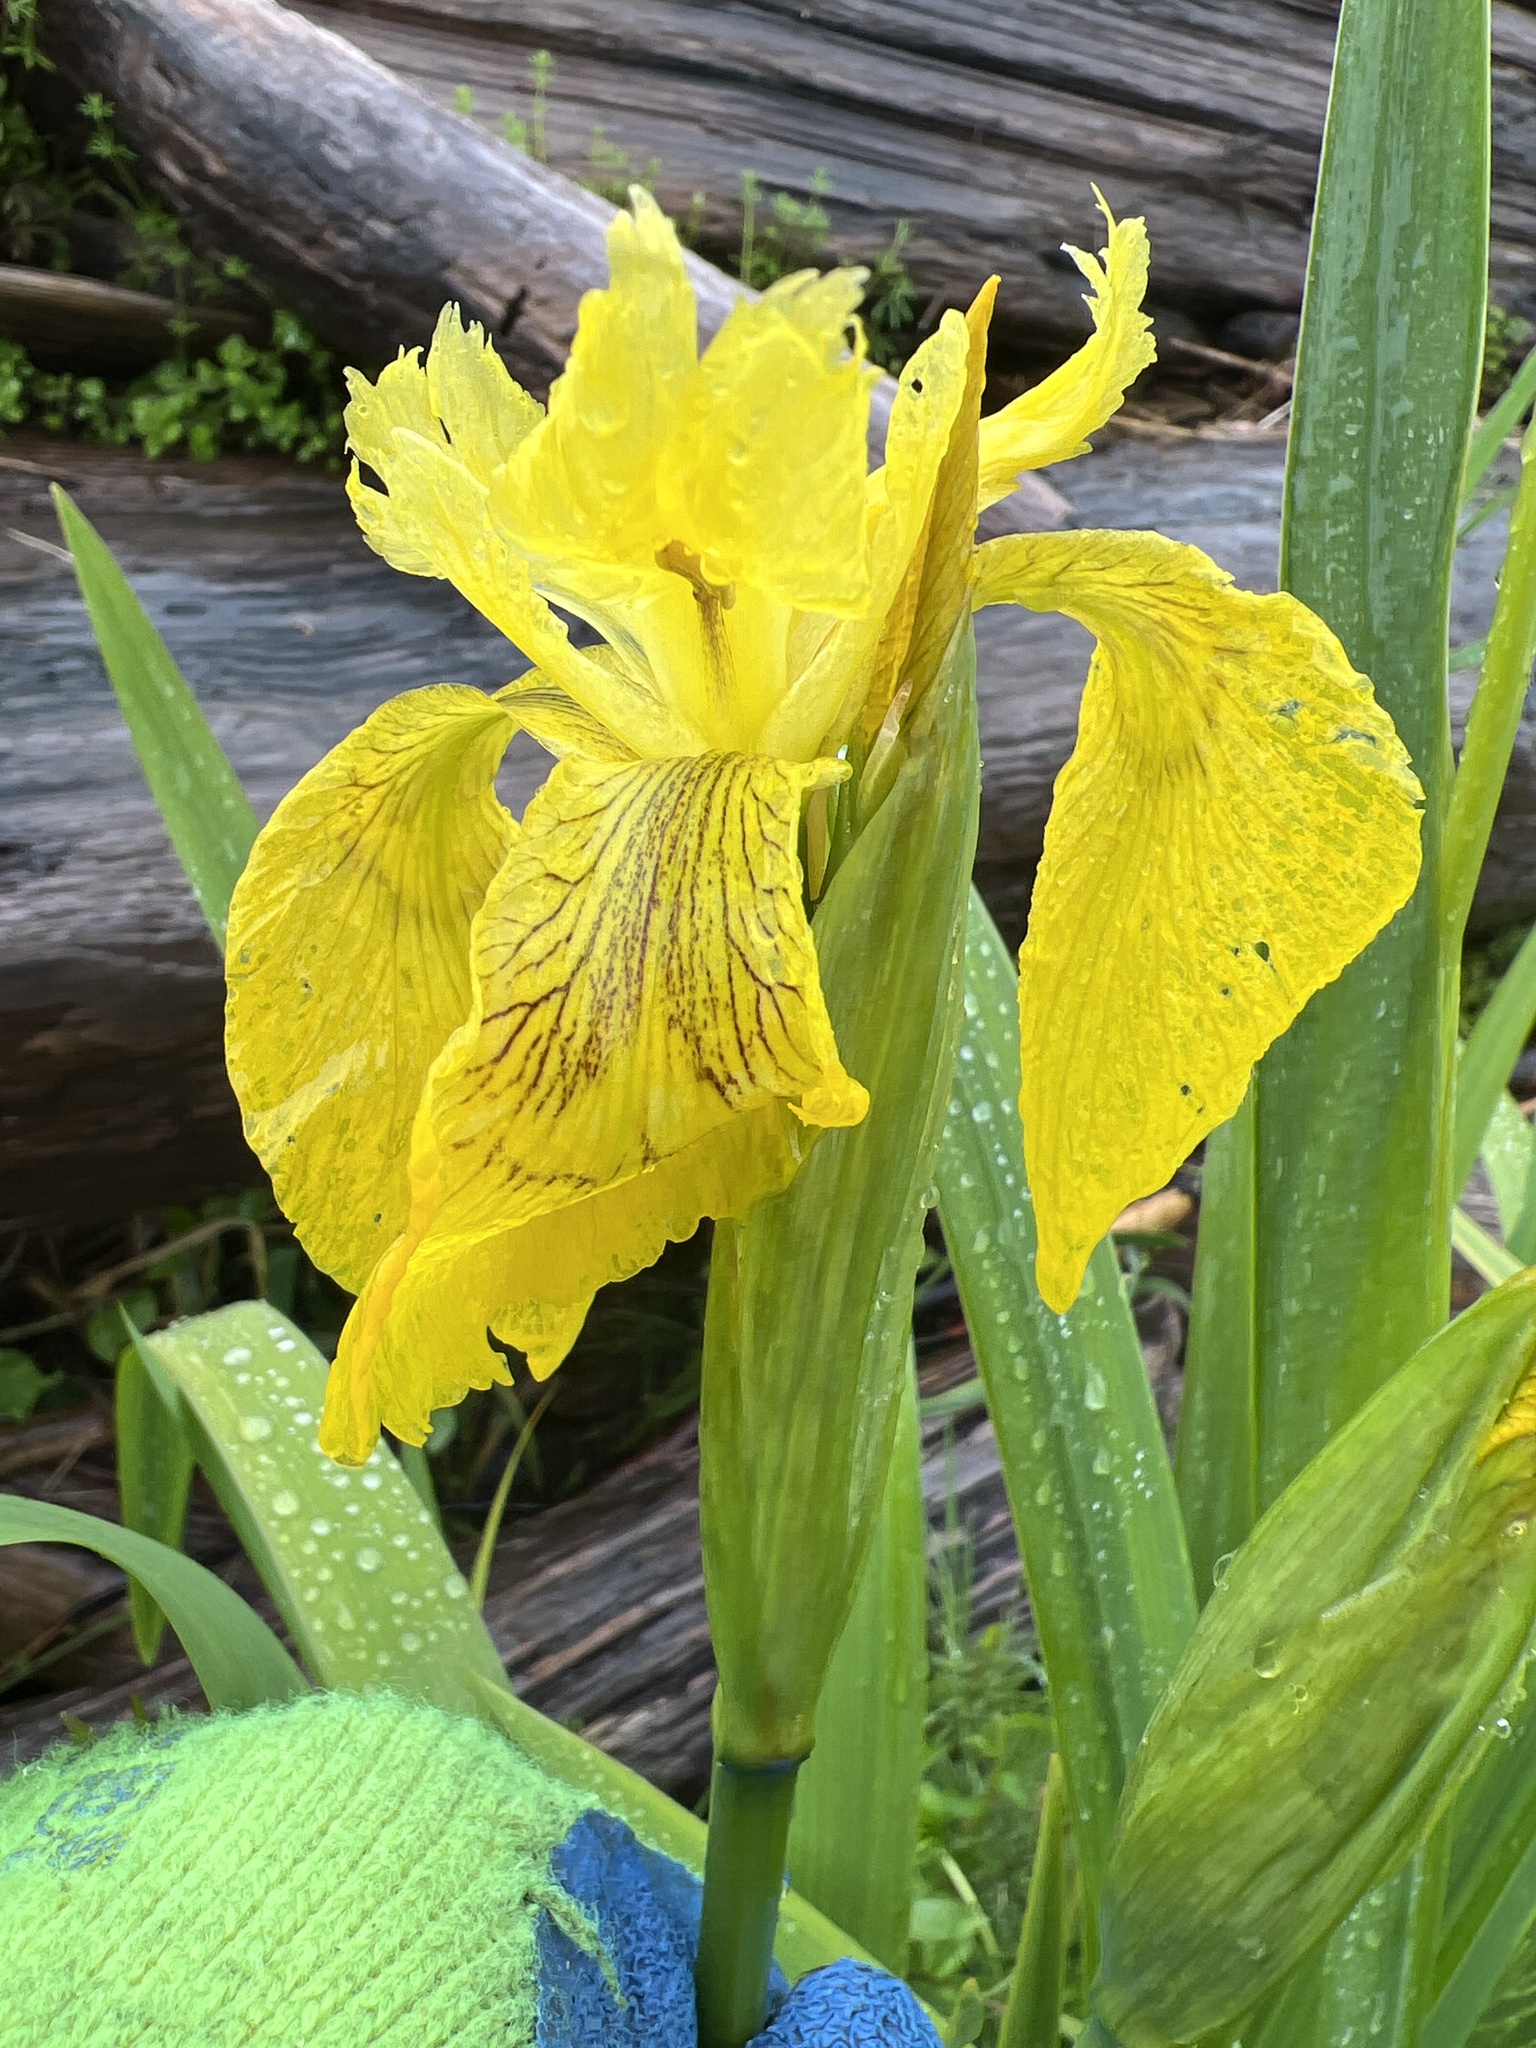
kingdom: Plantae
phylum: Tracheophyta
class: Liliopsida
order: Asparagales
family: Iridaceae
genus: Iris
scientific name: Iris pseudacorus
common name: Yellow flag
